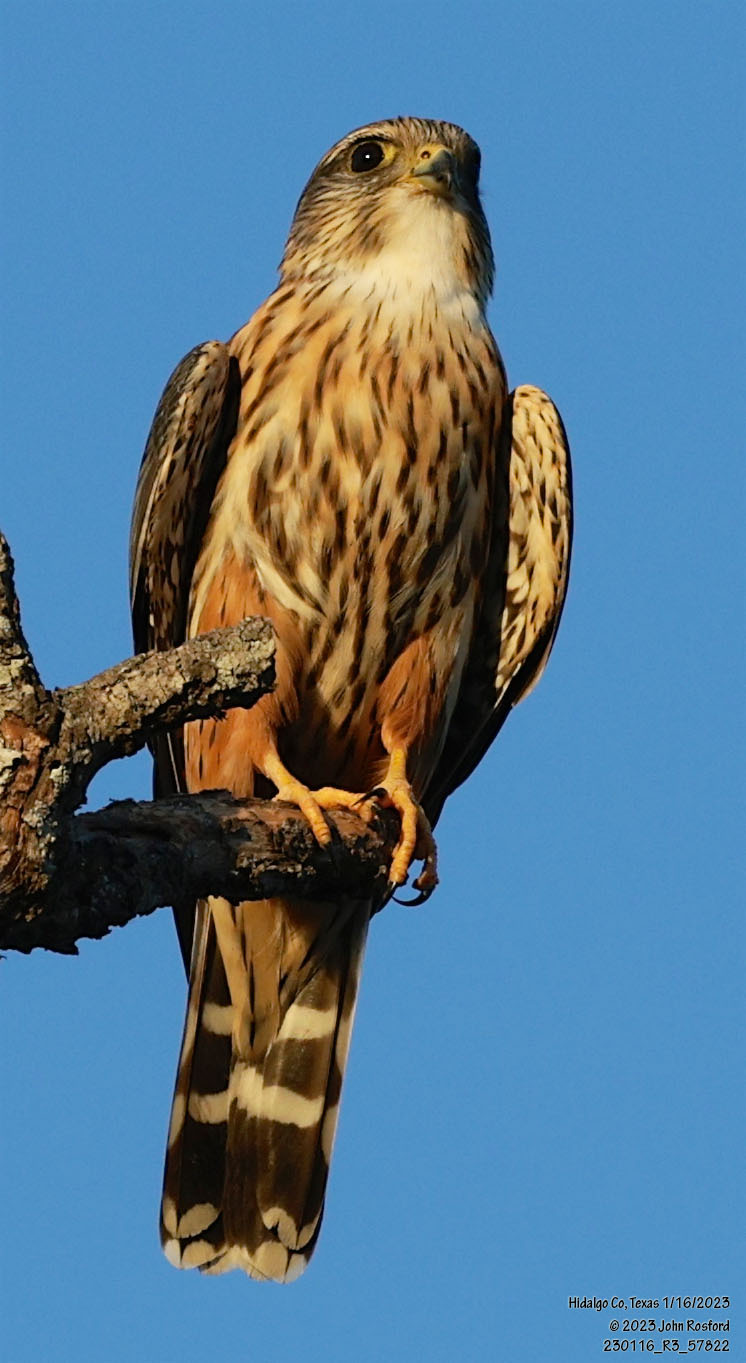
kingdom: Animalia
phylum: Chordata
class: Aves
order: Falconiformes
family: Falconidae
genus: Falco
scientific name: Falco columbarius
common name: Merlin
